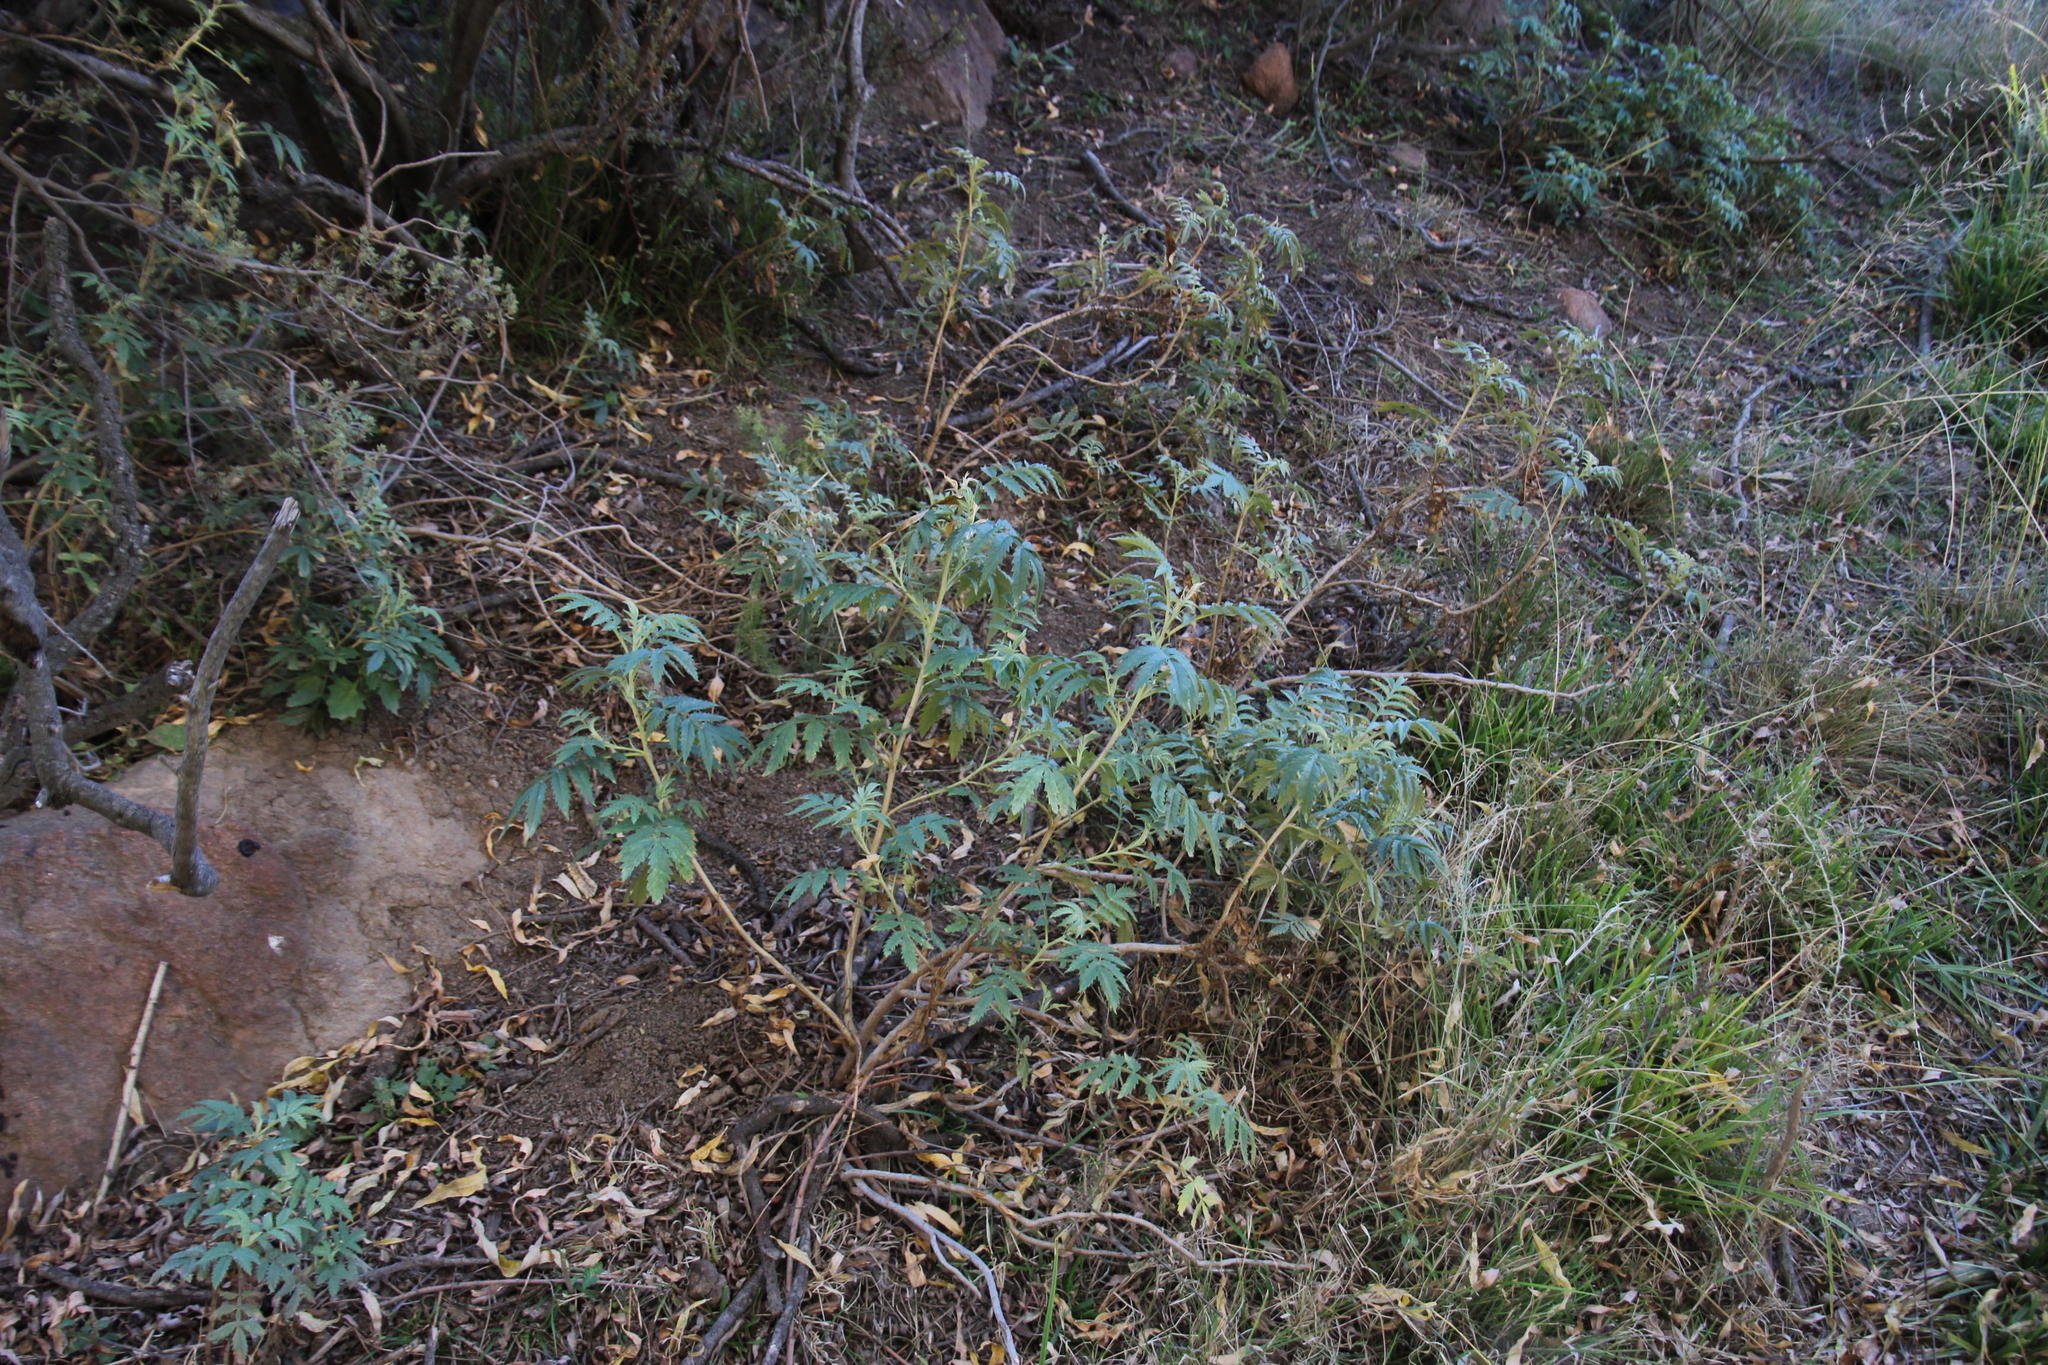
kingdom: Plantae
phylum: Tracheophyta
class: Magnoliopsida
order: Geraniales
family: Melianthaceae
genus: Melianthus
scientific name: Melianthus comosus
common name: Touch-me-not
